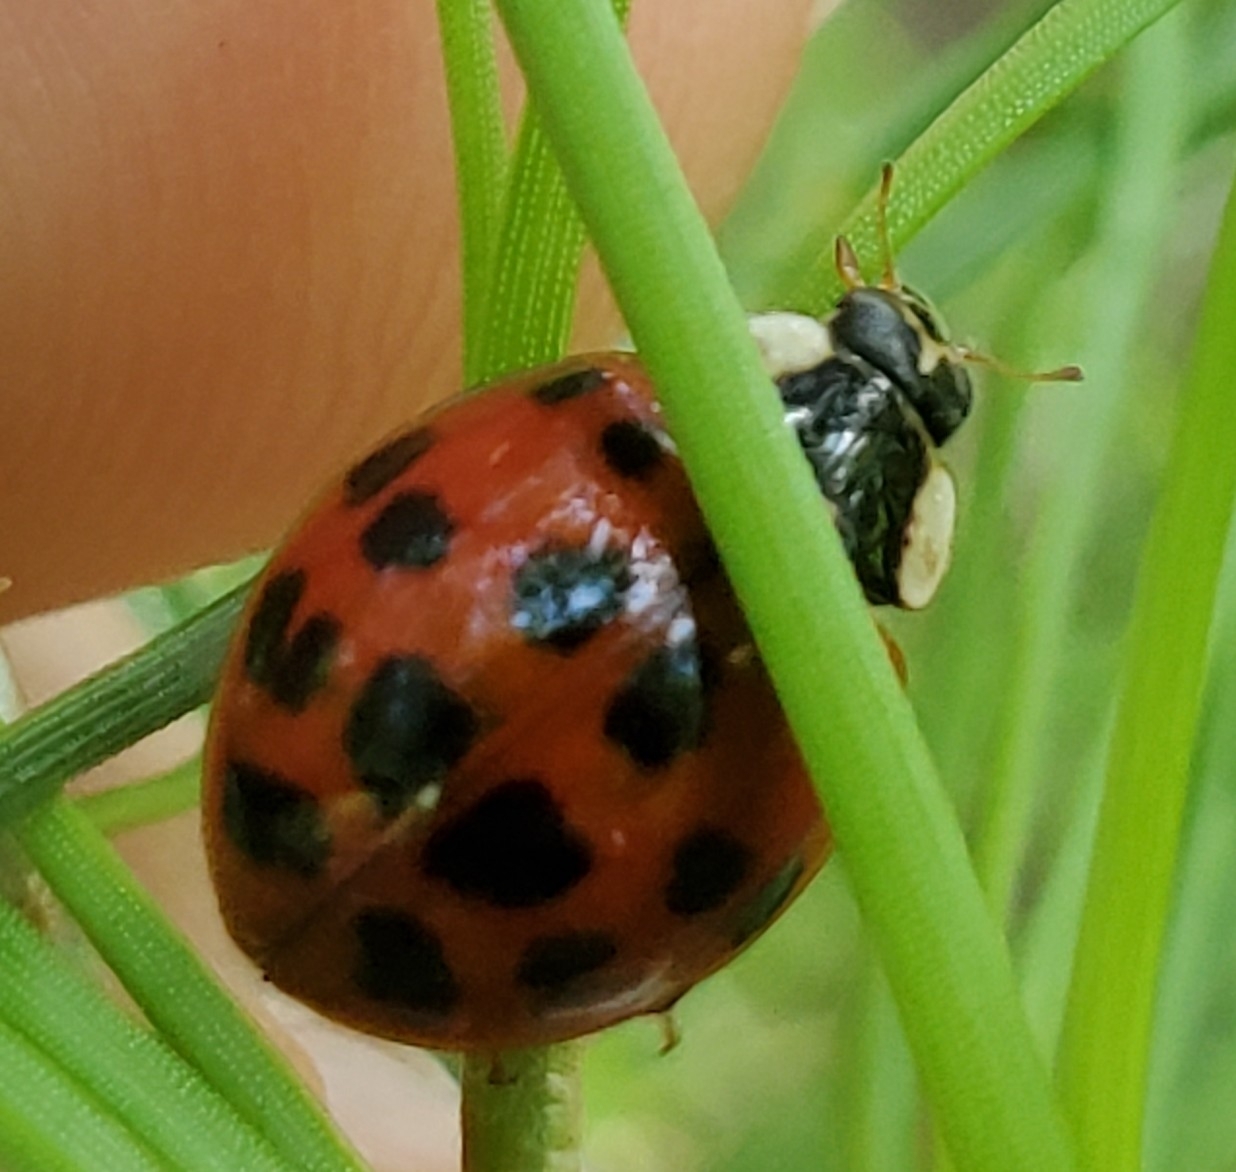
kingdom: Animalia
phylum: Arthropoda
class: Insecta
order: Coleoptera
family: Coccinellidae
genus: Harmonia
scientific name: Harmonia axyridis
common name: Harlequin ladybird
